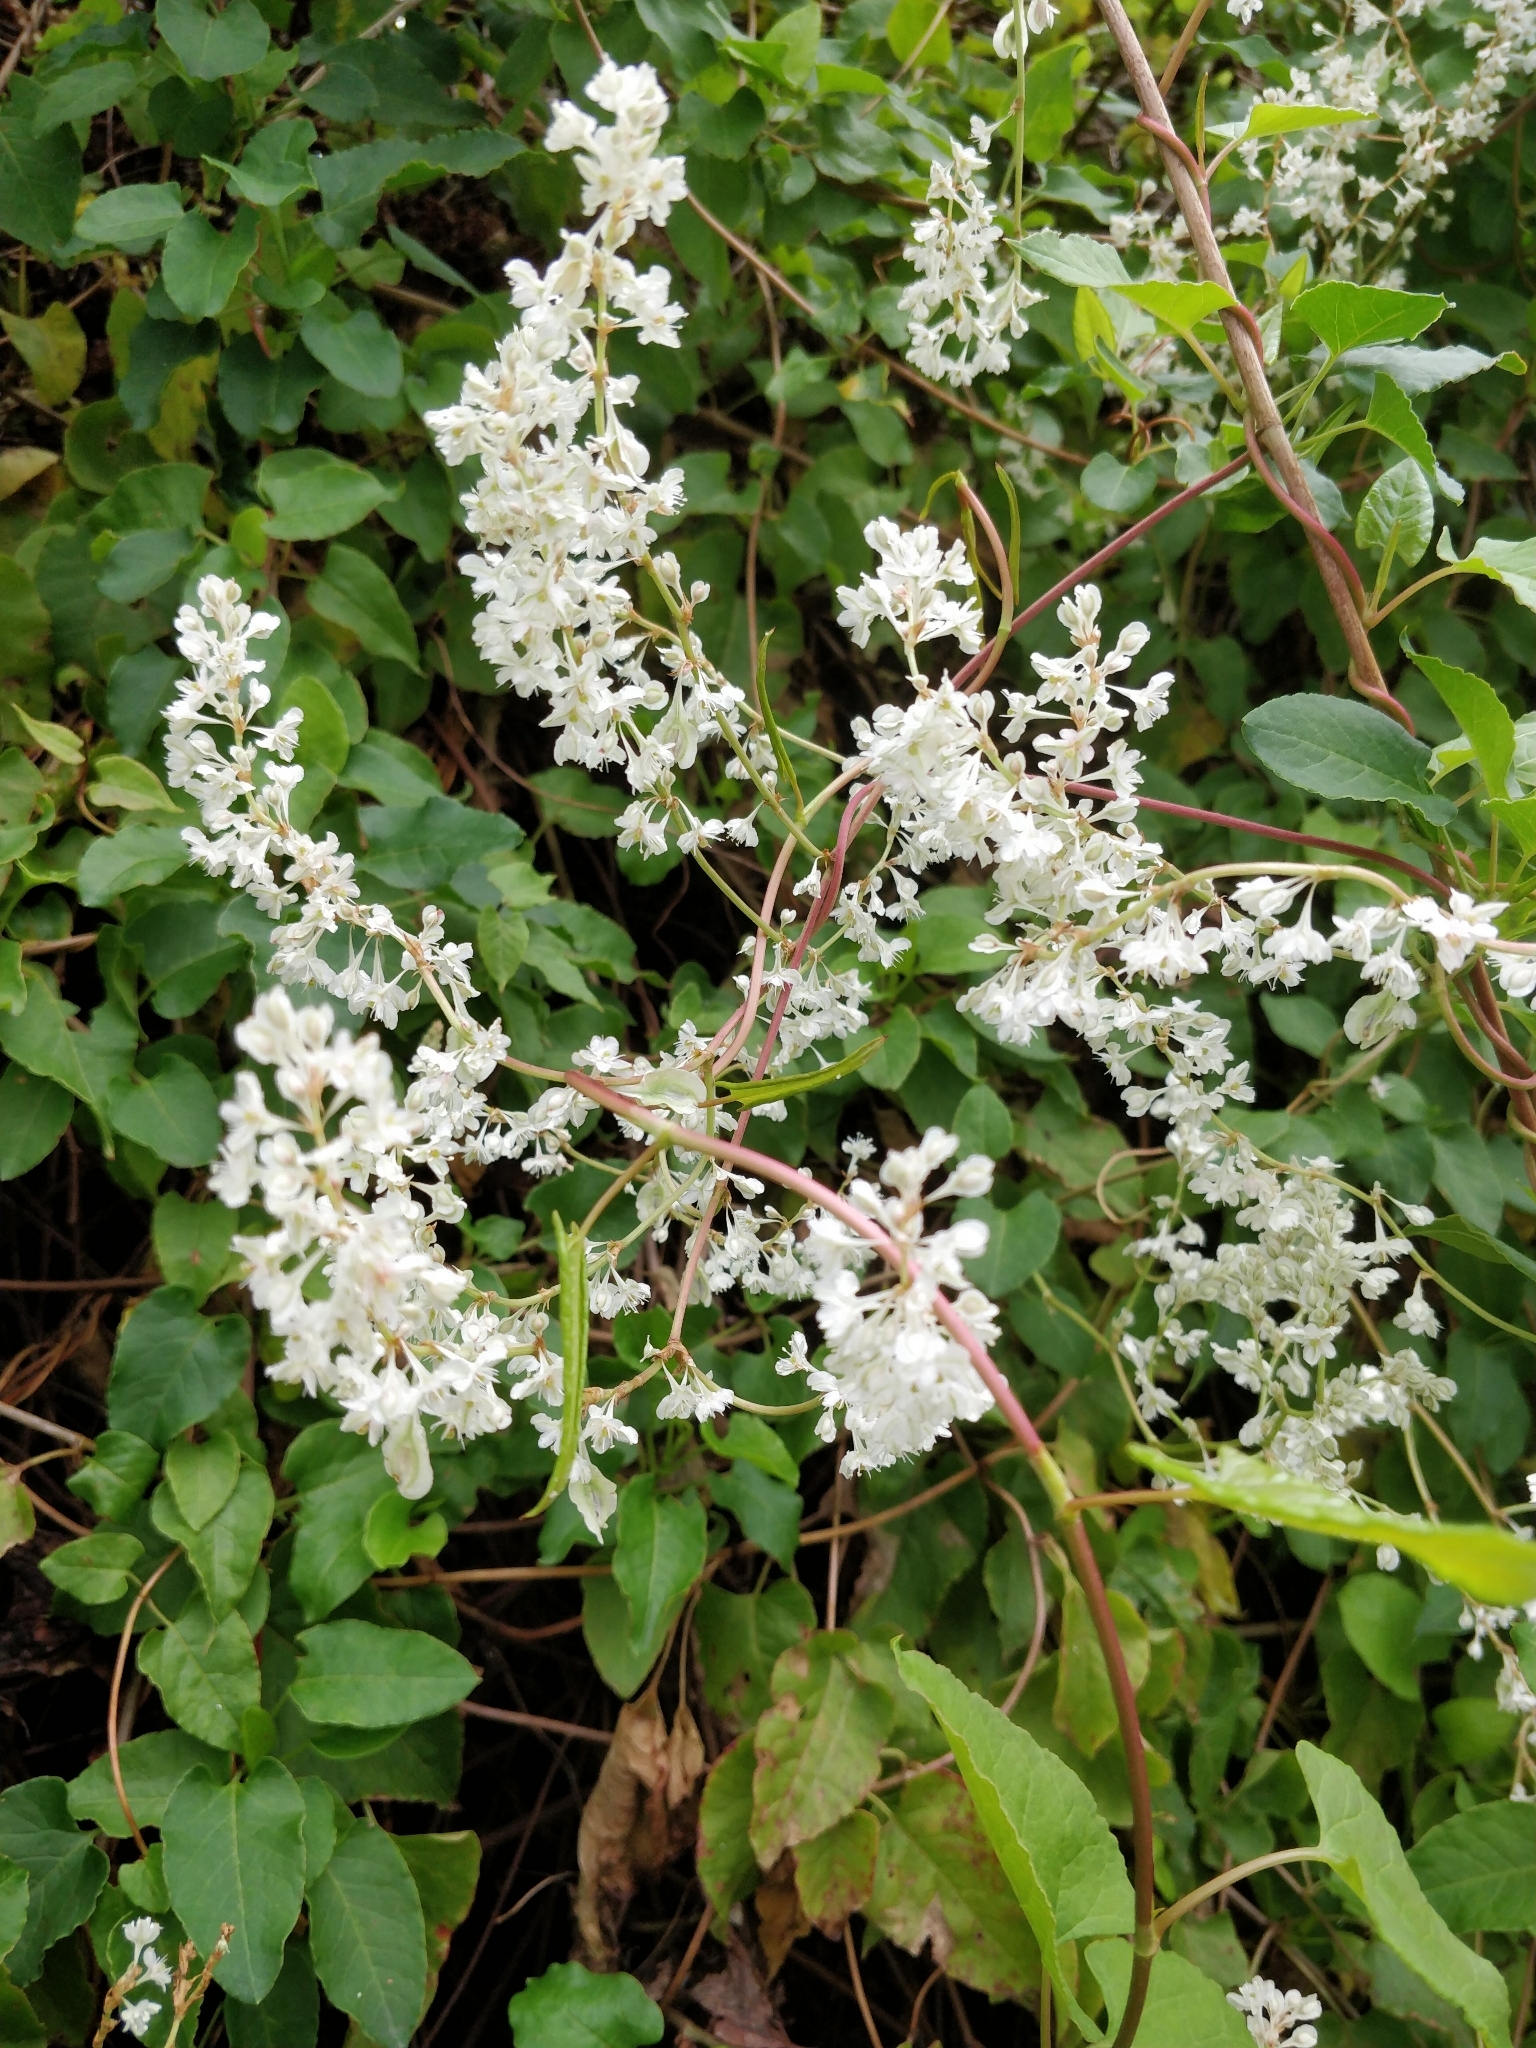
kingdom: Plantae
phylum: Tracheophyta
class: Magnoliopsida
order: Caryophyllales
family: Polygonaceae
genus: Fallopia
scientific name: Fallopia baldschuanica
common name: Russian-vine
